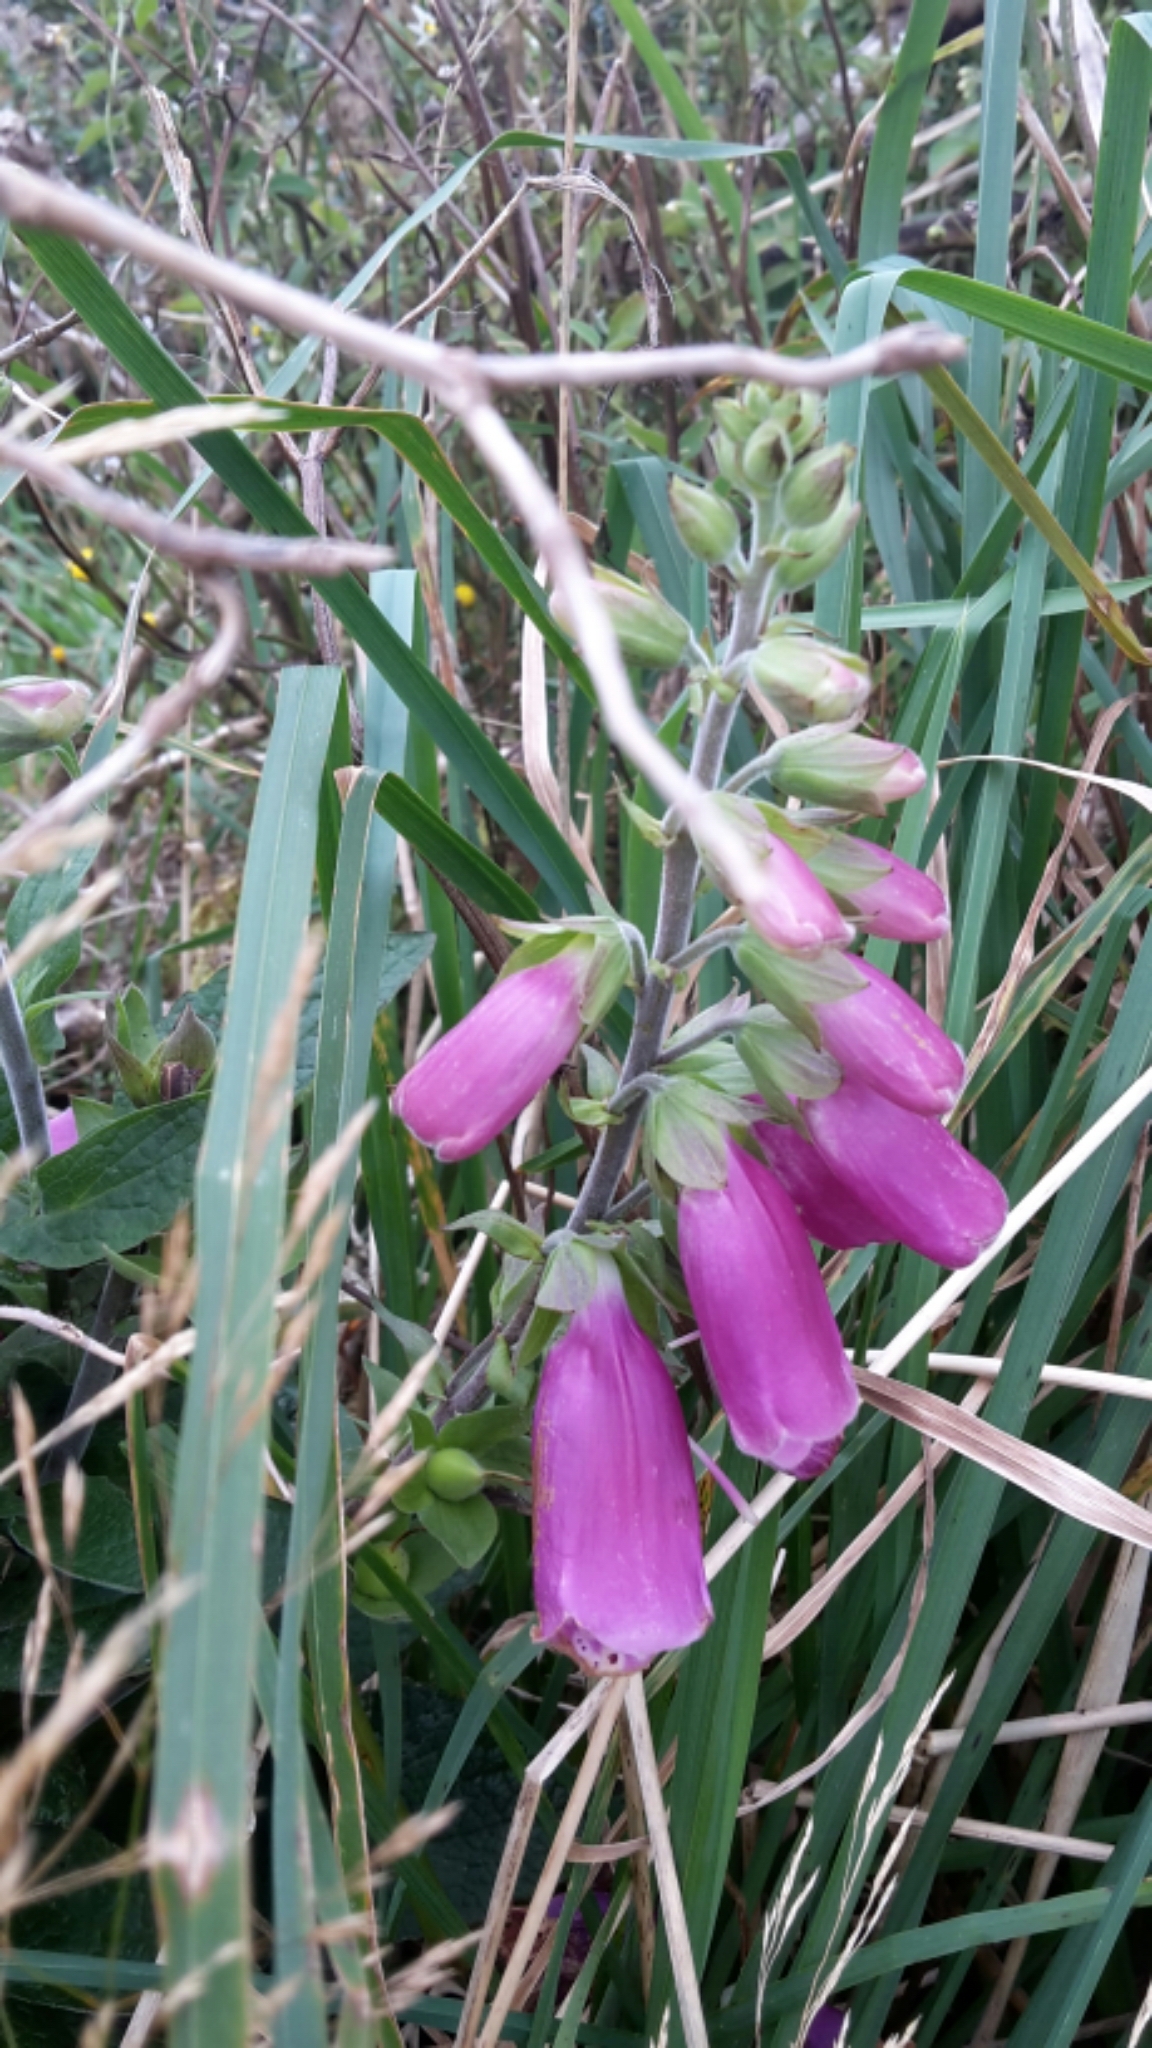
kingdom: Plantae
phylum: Tracheophyta
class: Magnoliopsida
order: Lamiales
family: Plantaginaceae
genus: Digitalis
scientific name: Digitalis purpurea
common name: Foxglove
